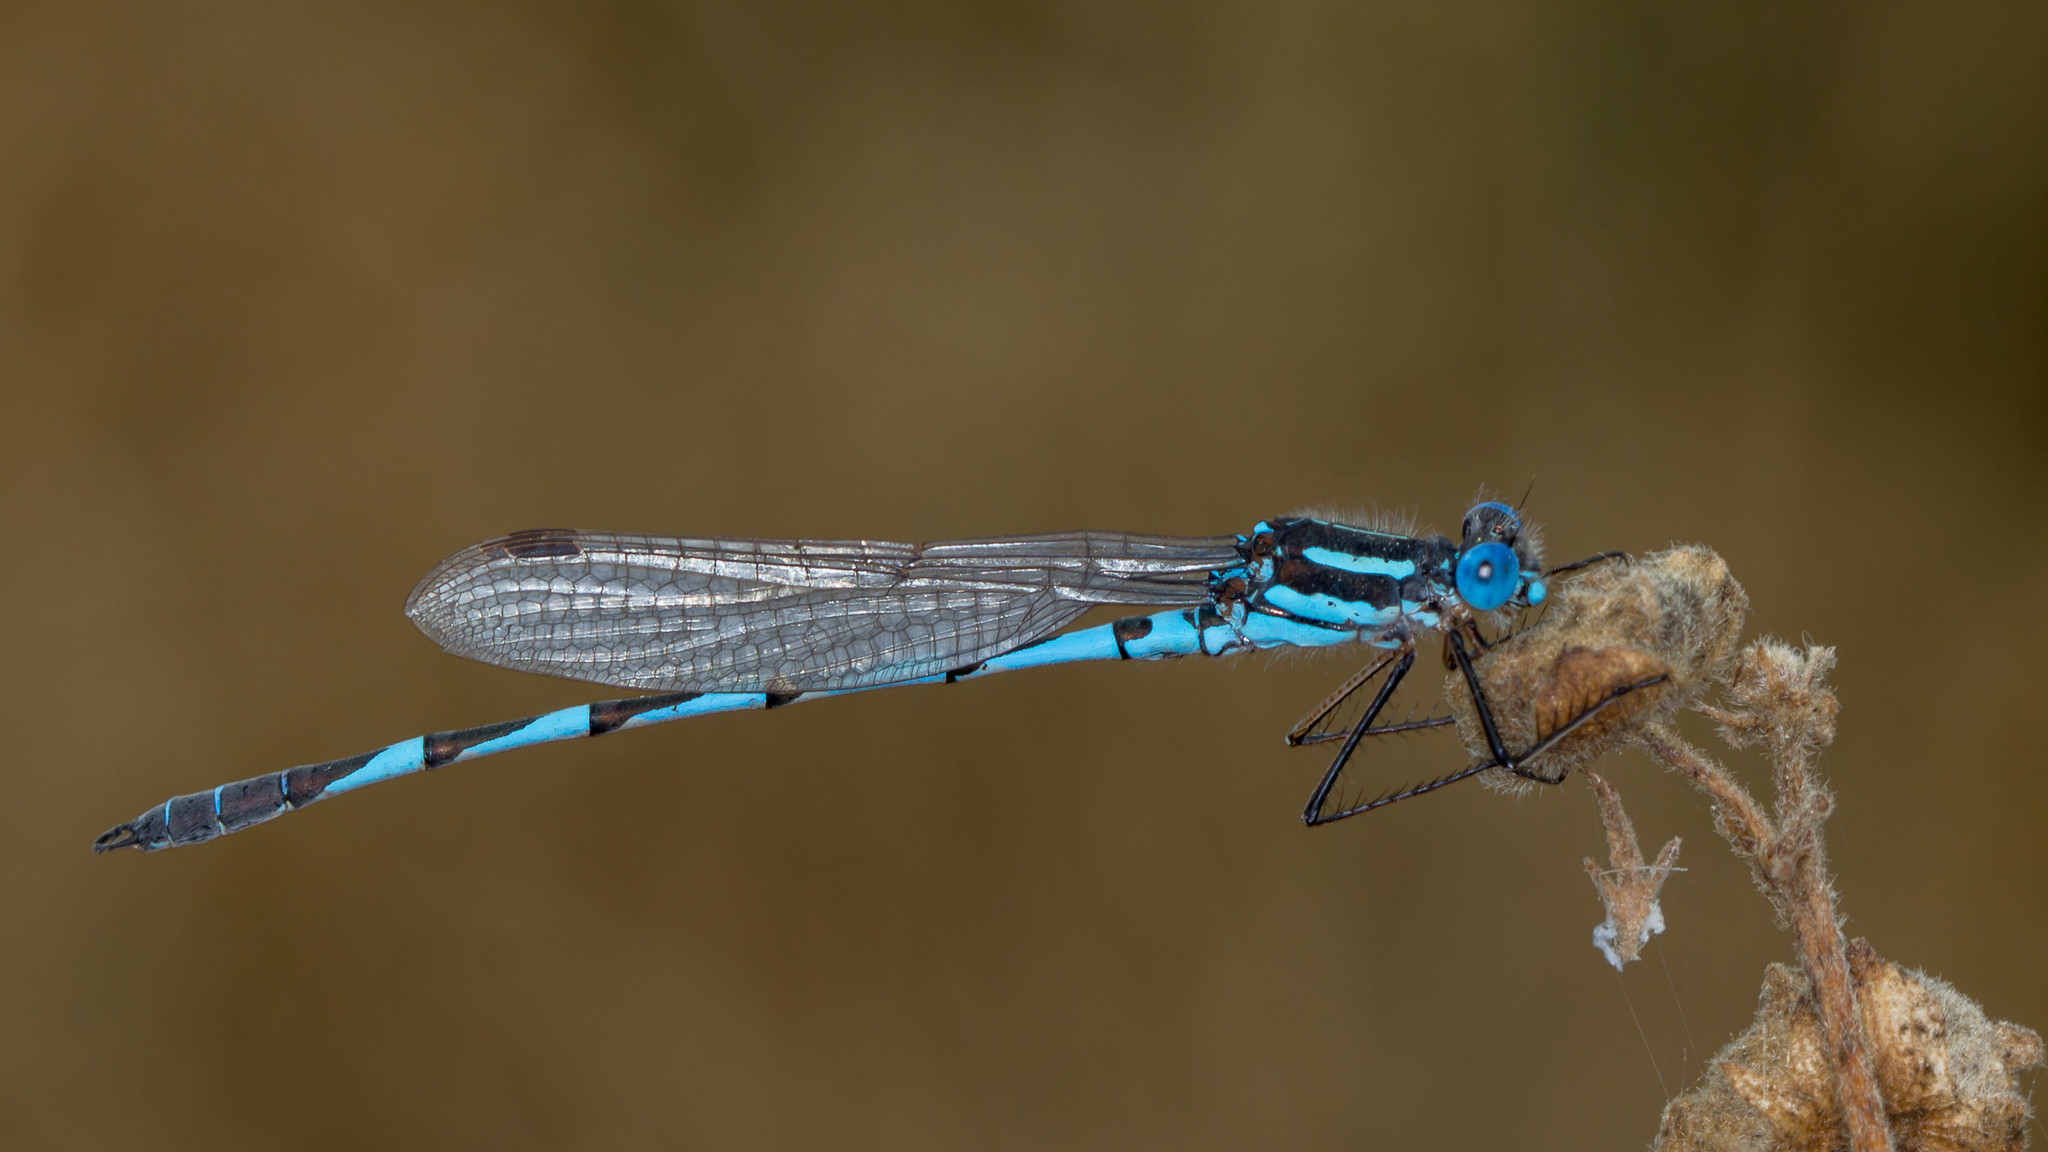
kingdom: Animalia
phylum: Arthropoda
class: Insecta
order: Odonata
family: Lestidae
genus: Austrolestes
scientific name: Austrolestes annulosus
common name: Blue ringtail
